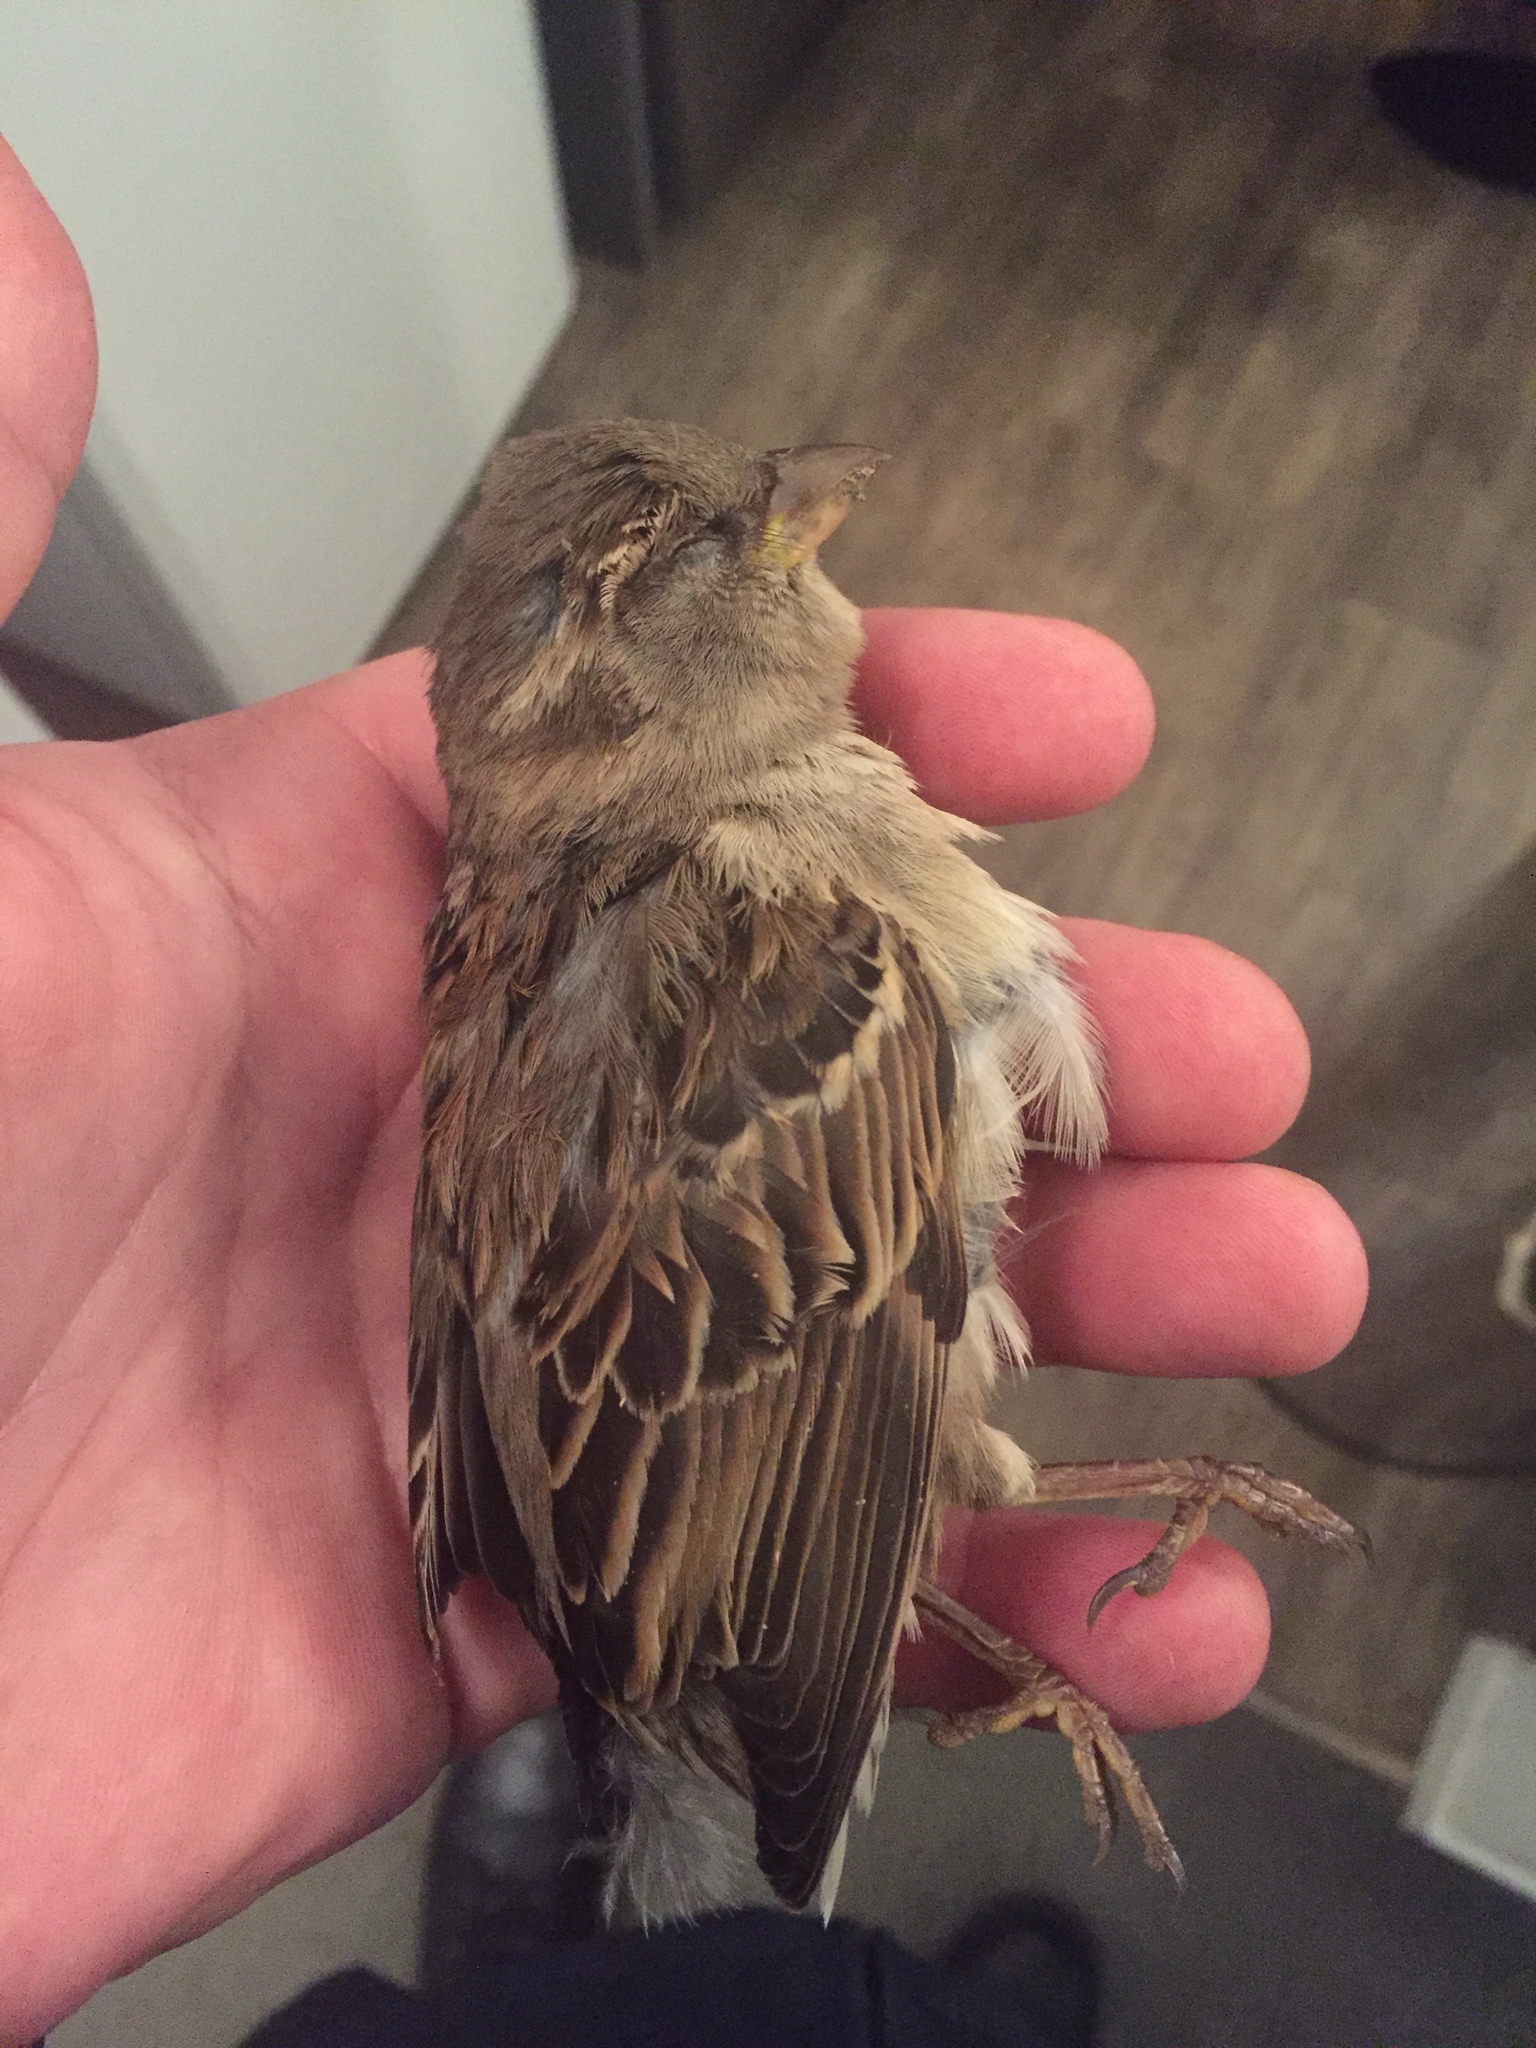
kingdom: Animalia
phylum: Chordata
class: Aves
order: Passeriformes
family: Passeridae
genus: Passer
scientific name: Passer domesticus
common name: House sparrow
